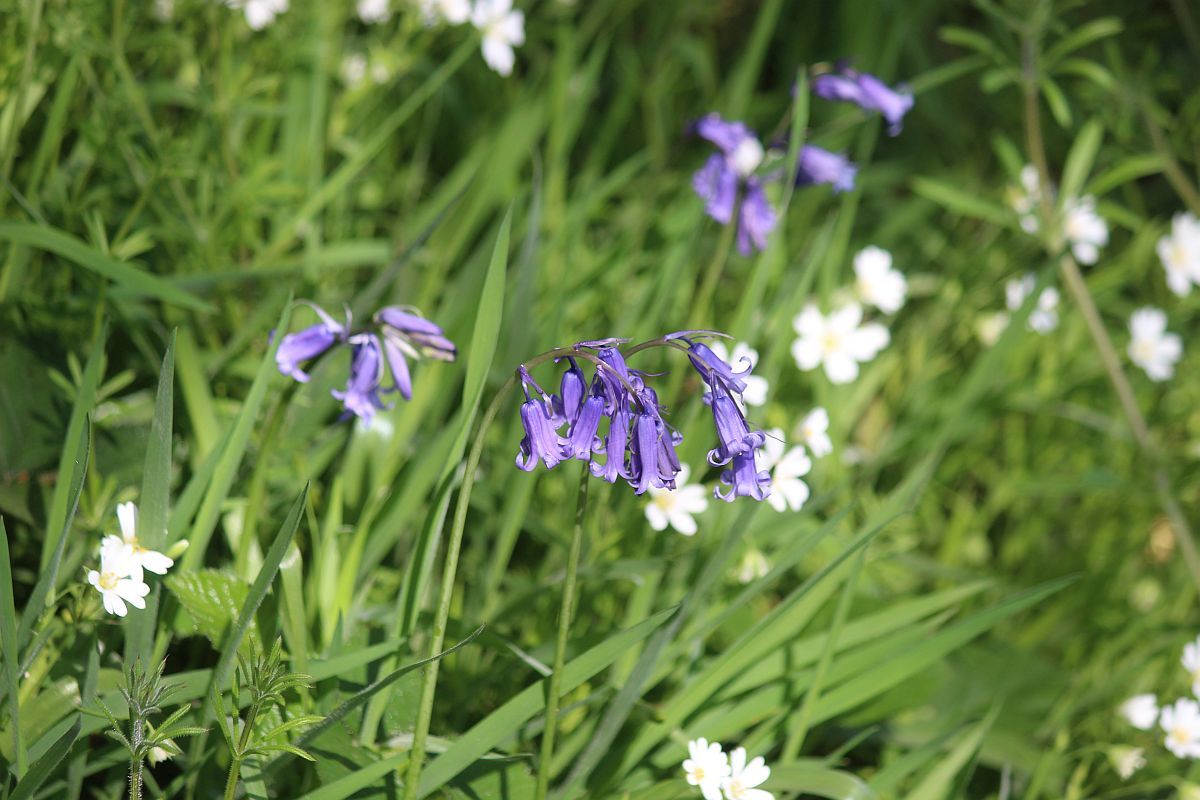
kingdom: Plantae
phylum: Tracheophyta
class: Liliopsida
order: Asparagales
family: Asparagaceae
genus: Hyacinthoides
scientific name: Hyacinthoides non-scripta
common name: Bluebell
